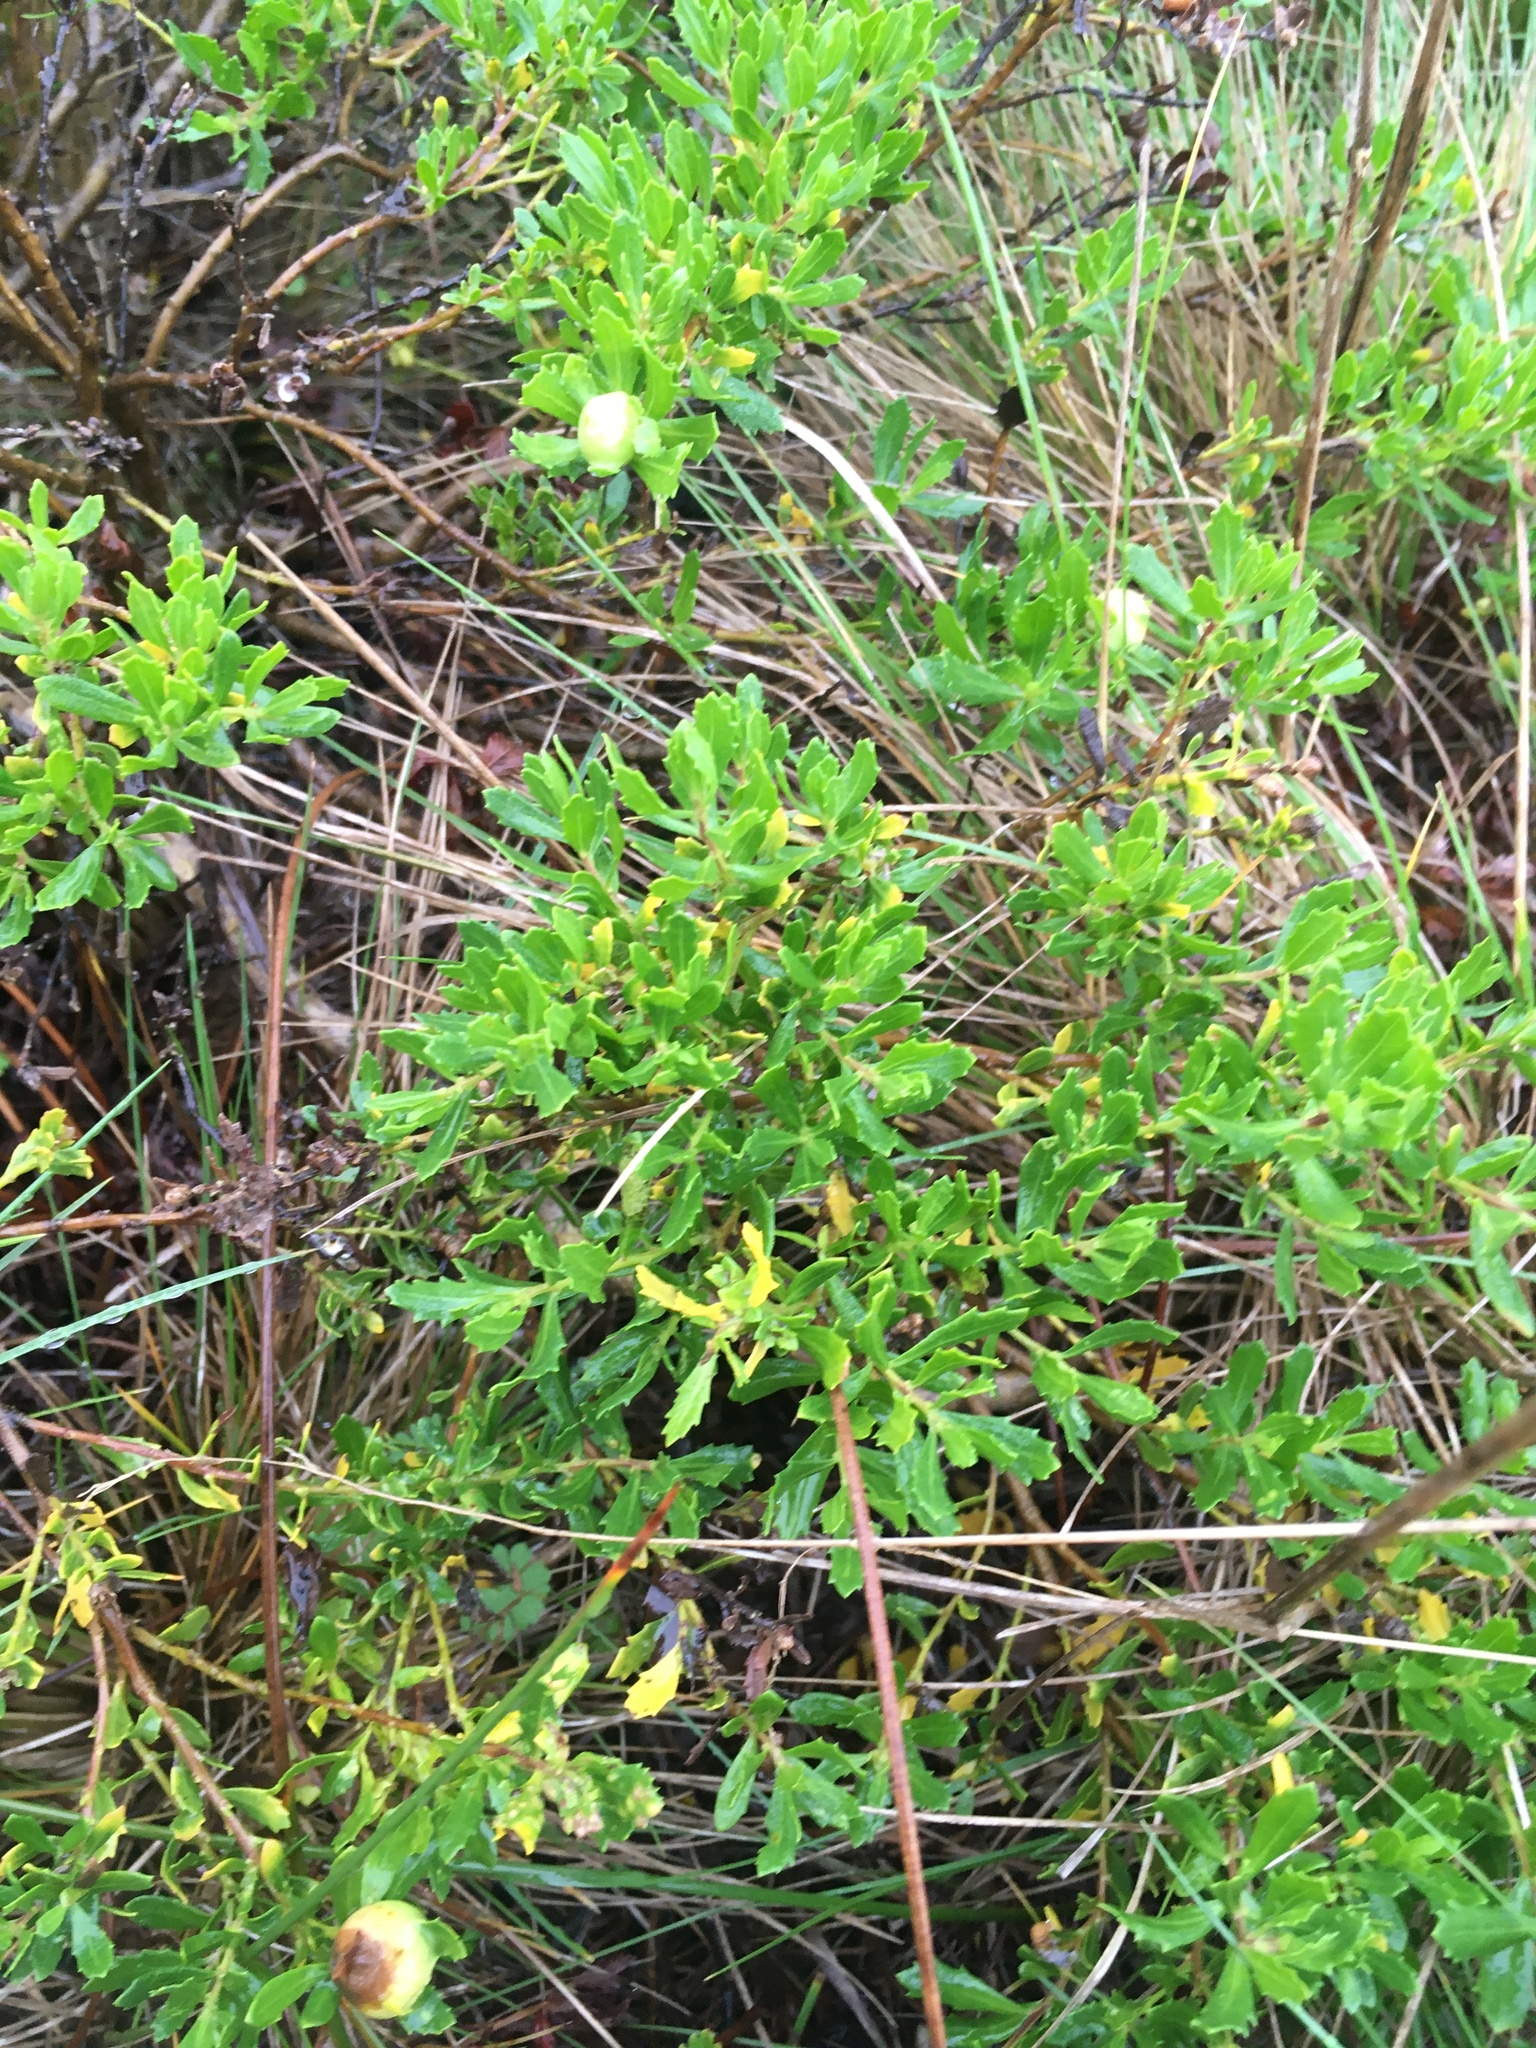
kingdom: Plantae
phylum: Tracheophyta
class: Magnoliopsida
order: Asterales
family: Asteraceae
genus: Baccharis
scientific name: Baccharis pilularis
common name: Coyotebrush
